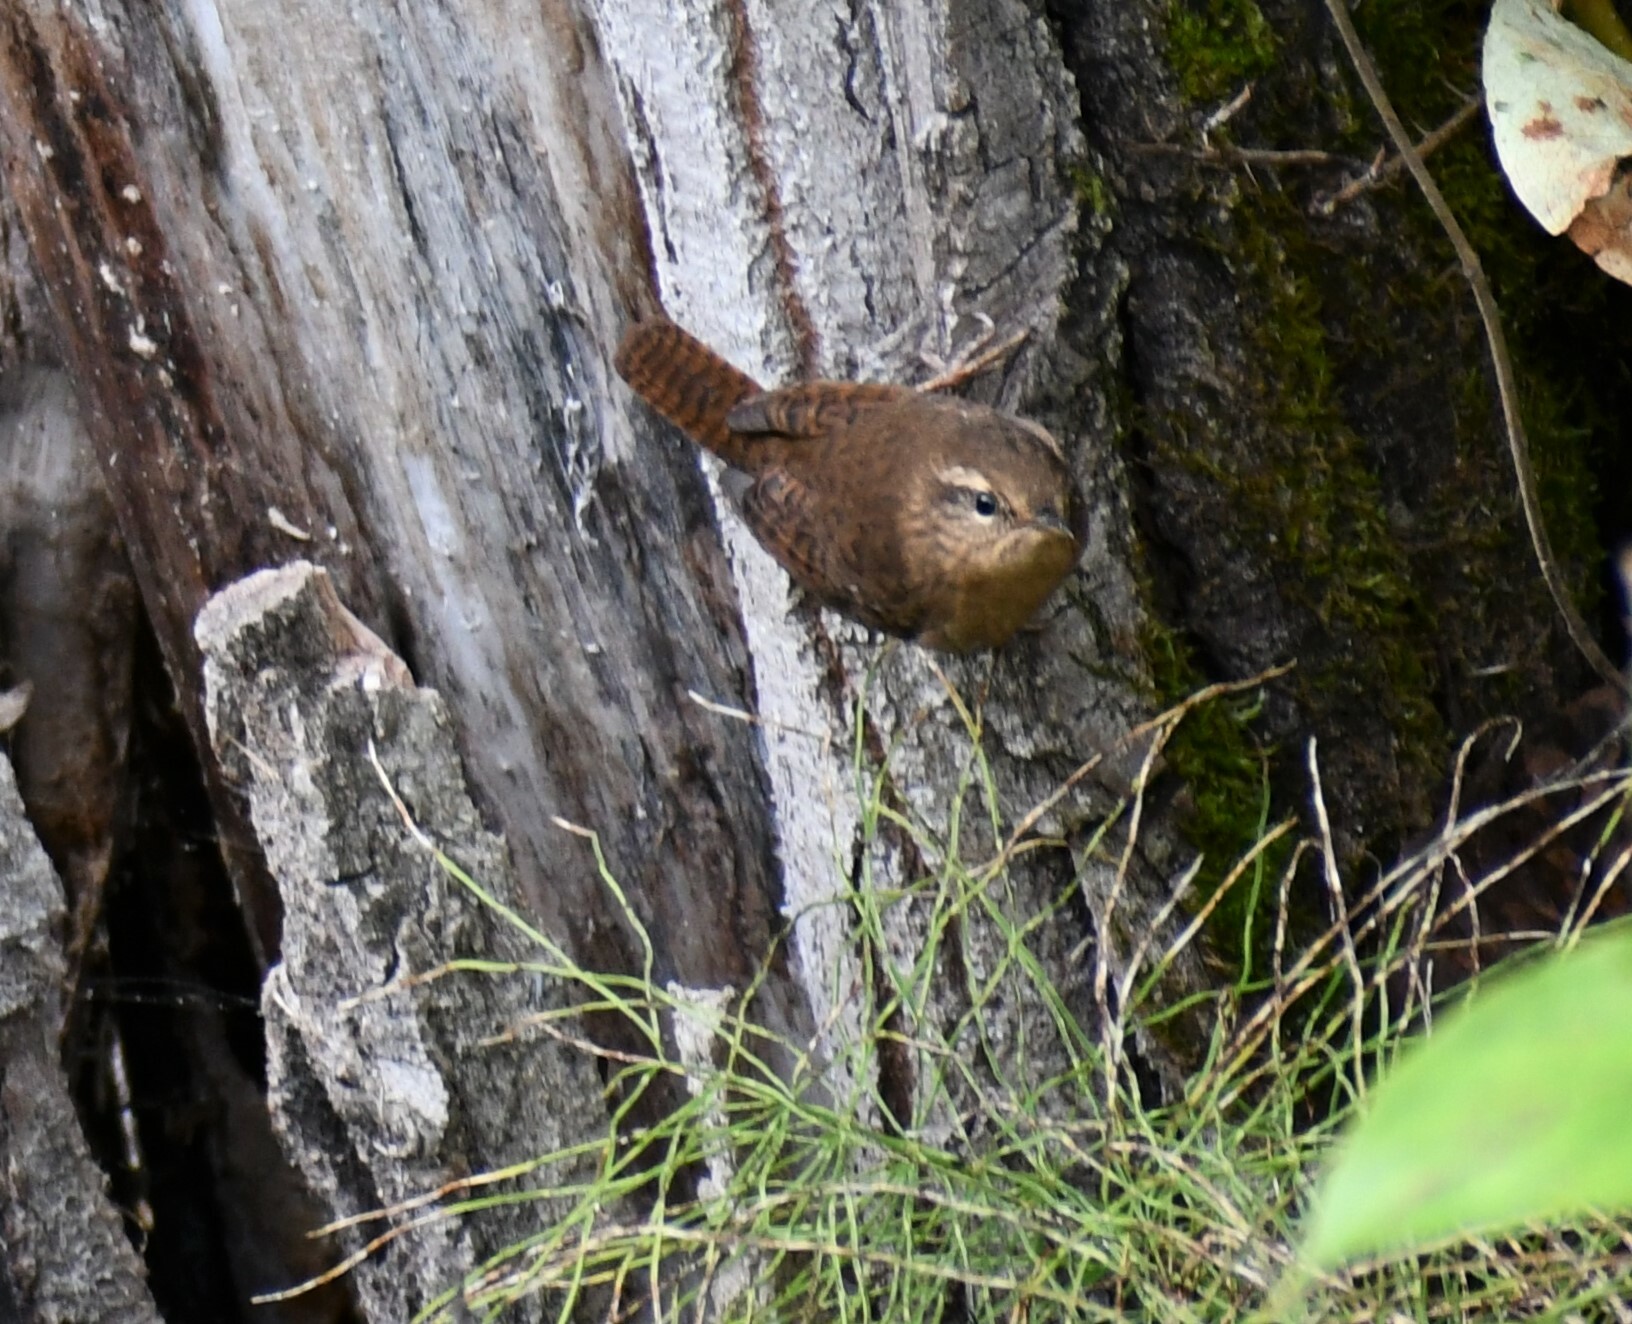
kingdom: Animalia
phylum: Chordata
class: Aves
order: Passeriformes
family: Troglodytidae
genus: Troglodytes
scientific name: Troglodytes pacificus
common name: Pacific wren
